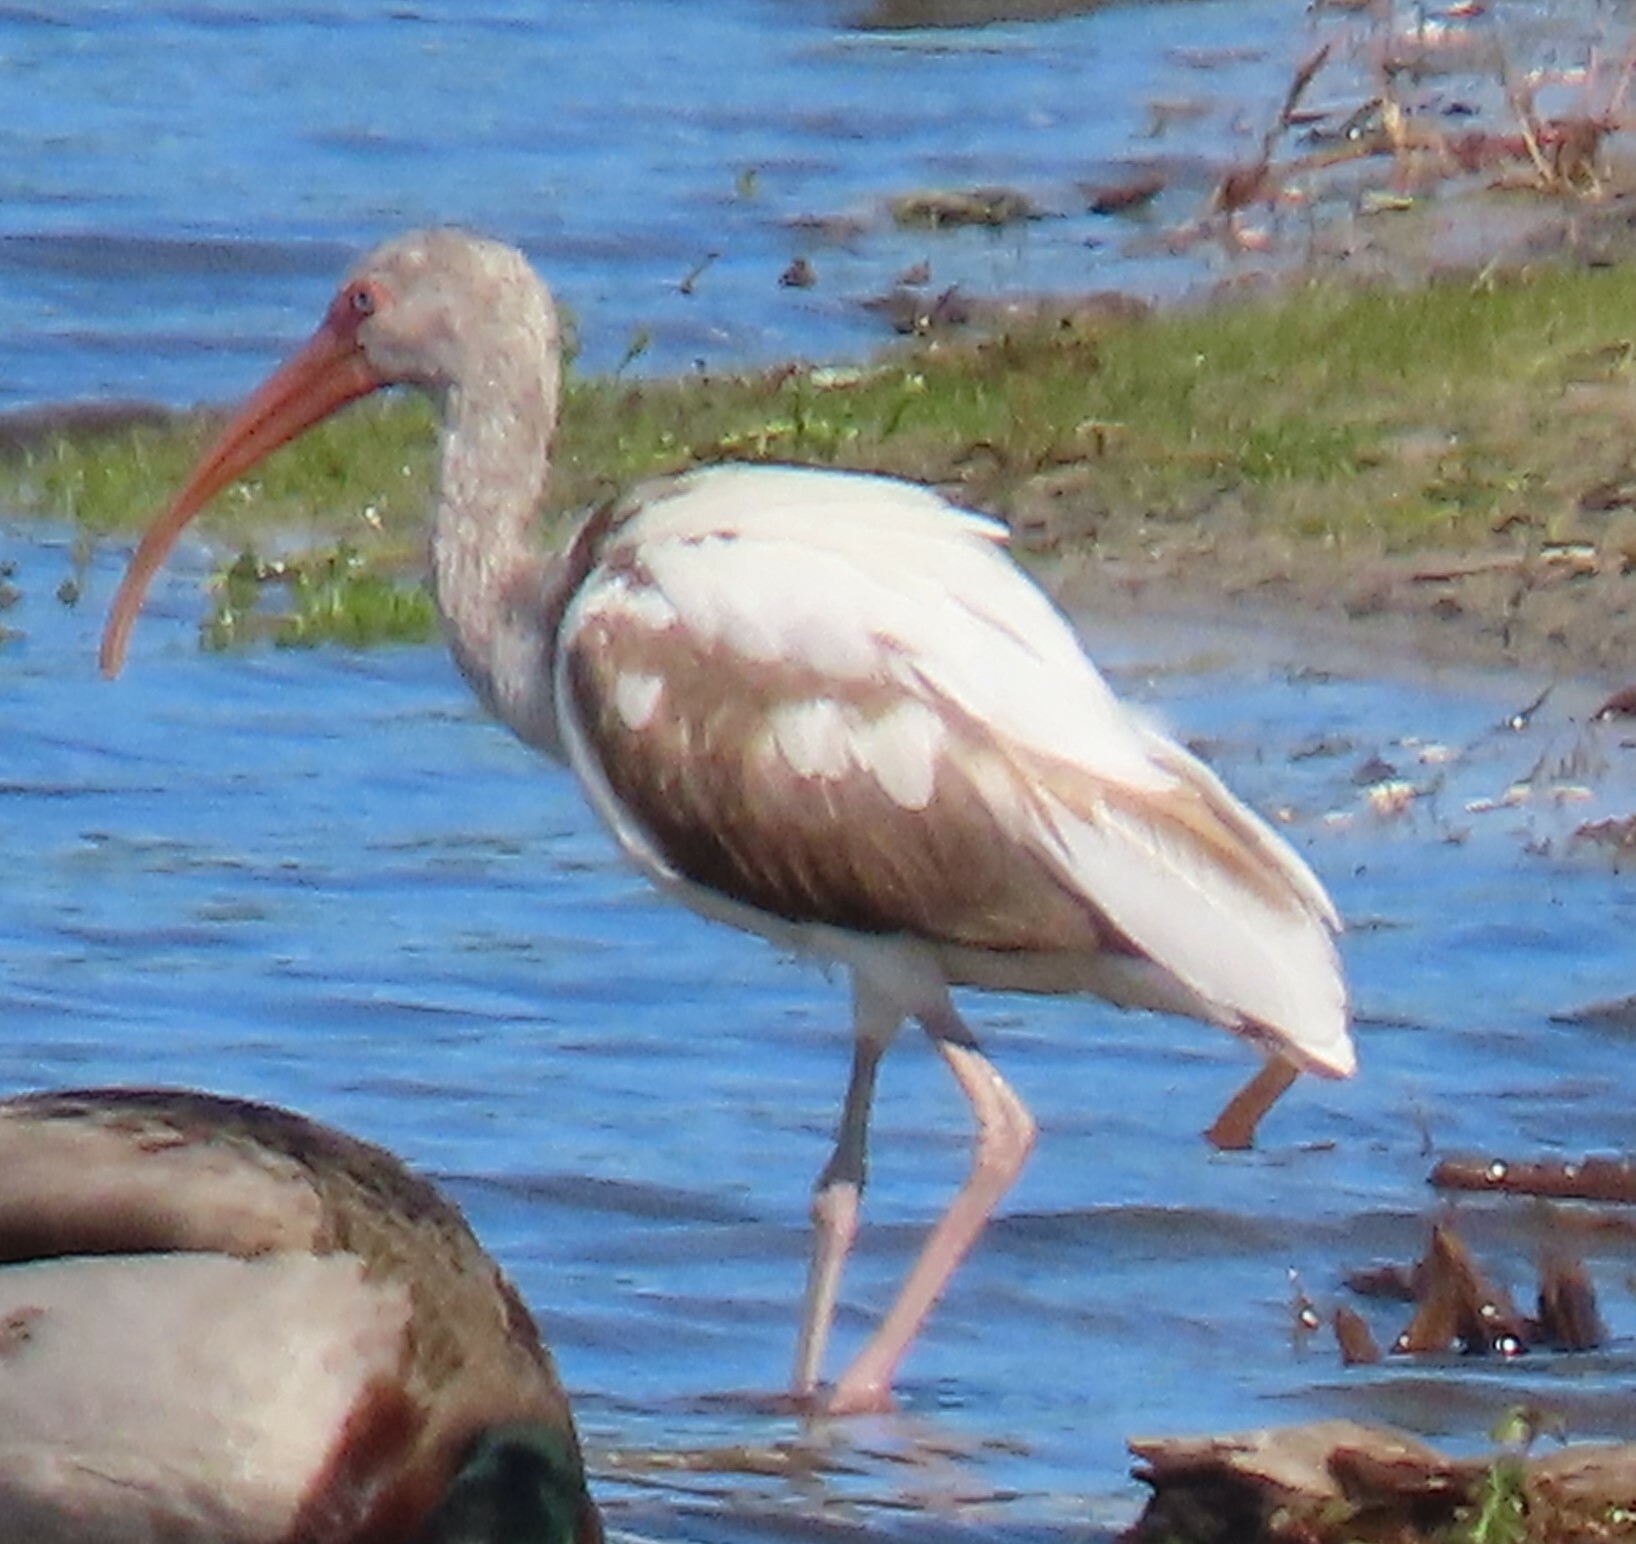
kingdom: Animalia
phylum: Chordata
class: Aves
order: Pelecaniformes
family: Threskiornithidae
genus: Eudocimus
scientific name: Eudocimus albus
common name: White ibis
